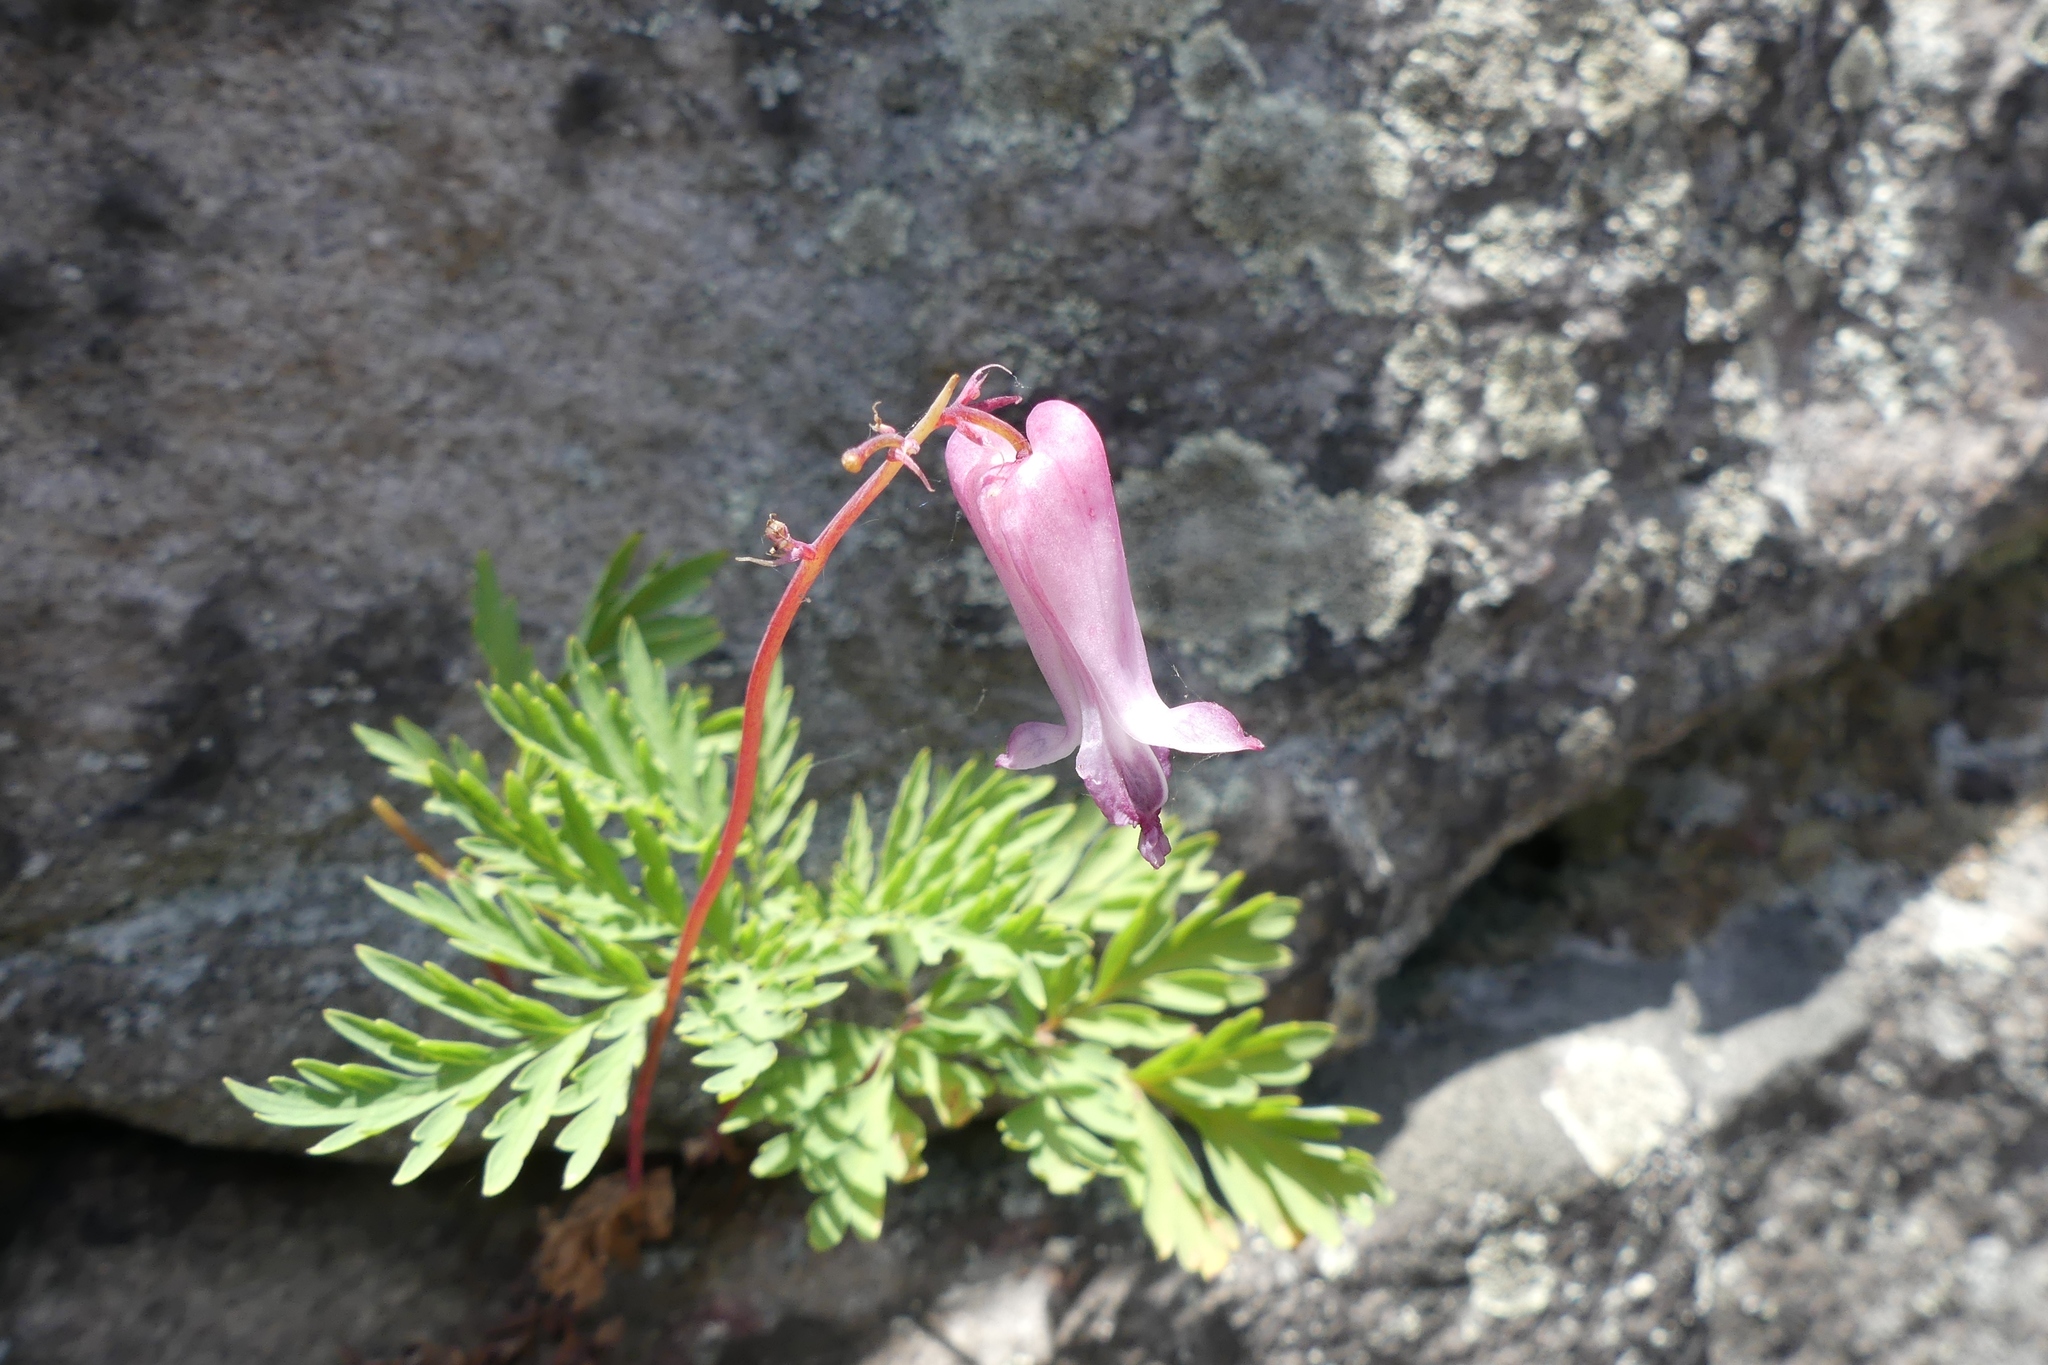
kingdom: Plantae
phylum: Tracheophyta
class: Magnoliopsida
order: Ranunculales
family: Papaveraceae
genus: Dicentra
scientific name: Dicentra eximia
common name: Turkey-corn
